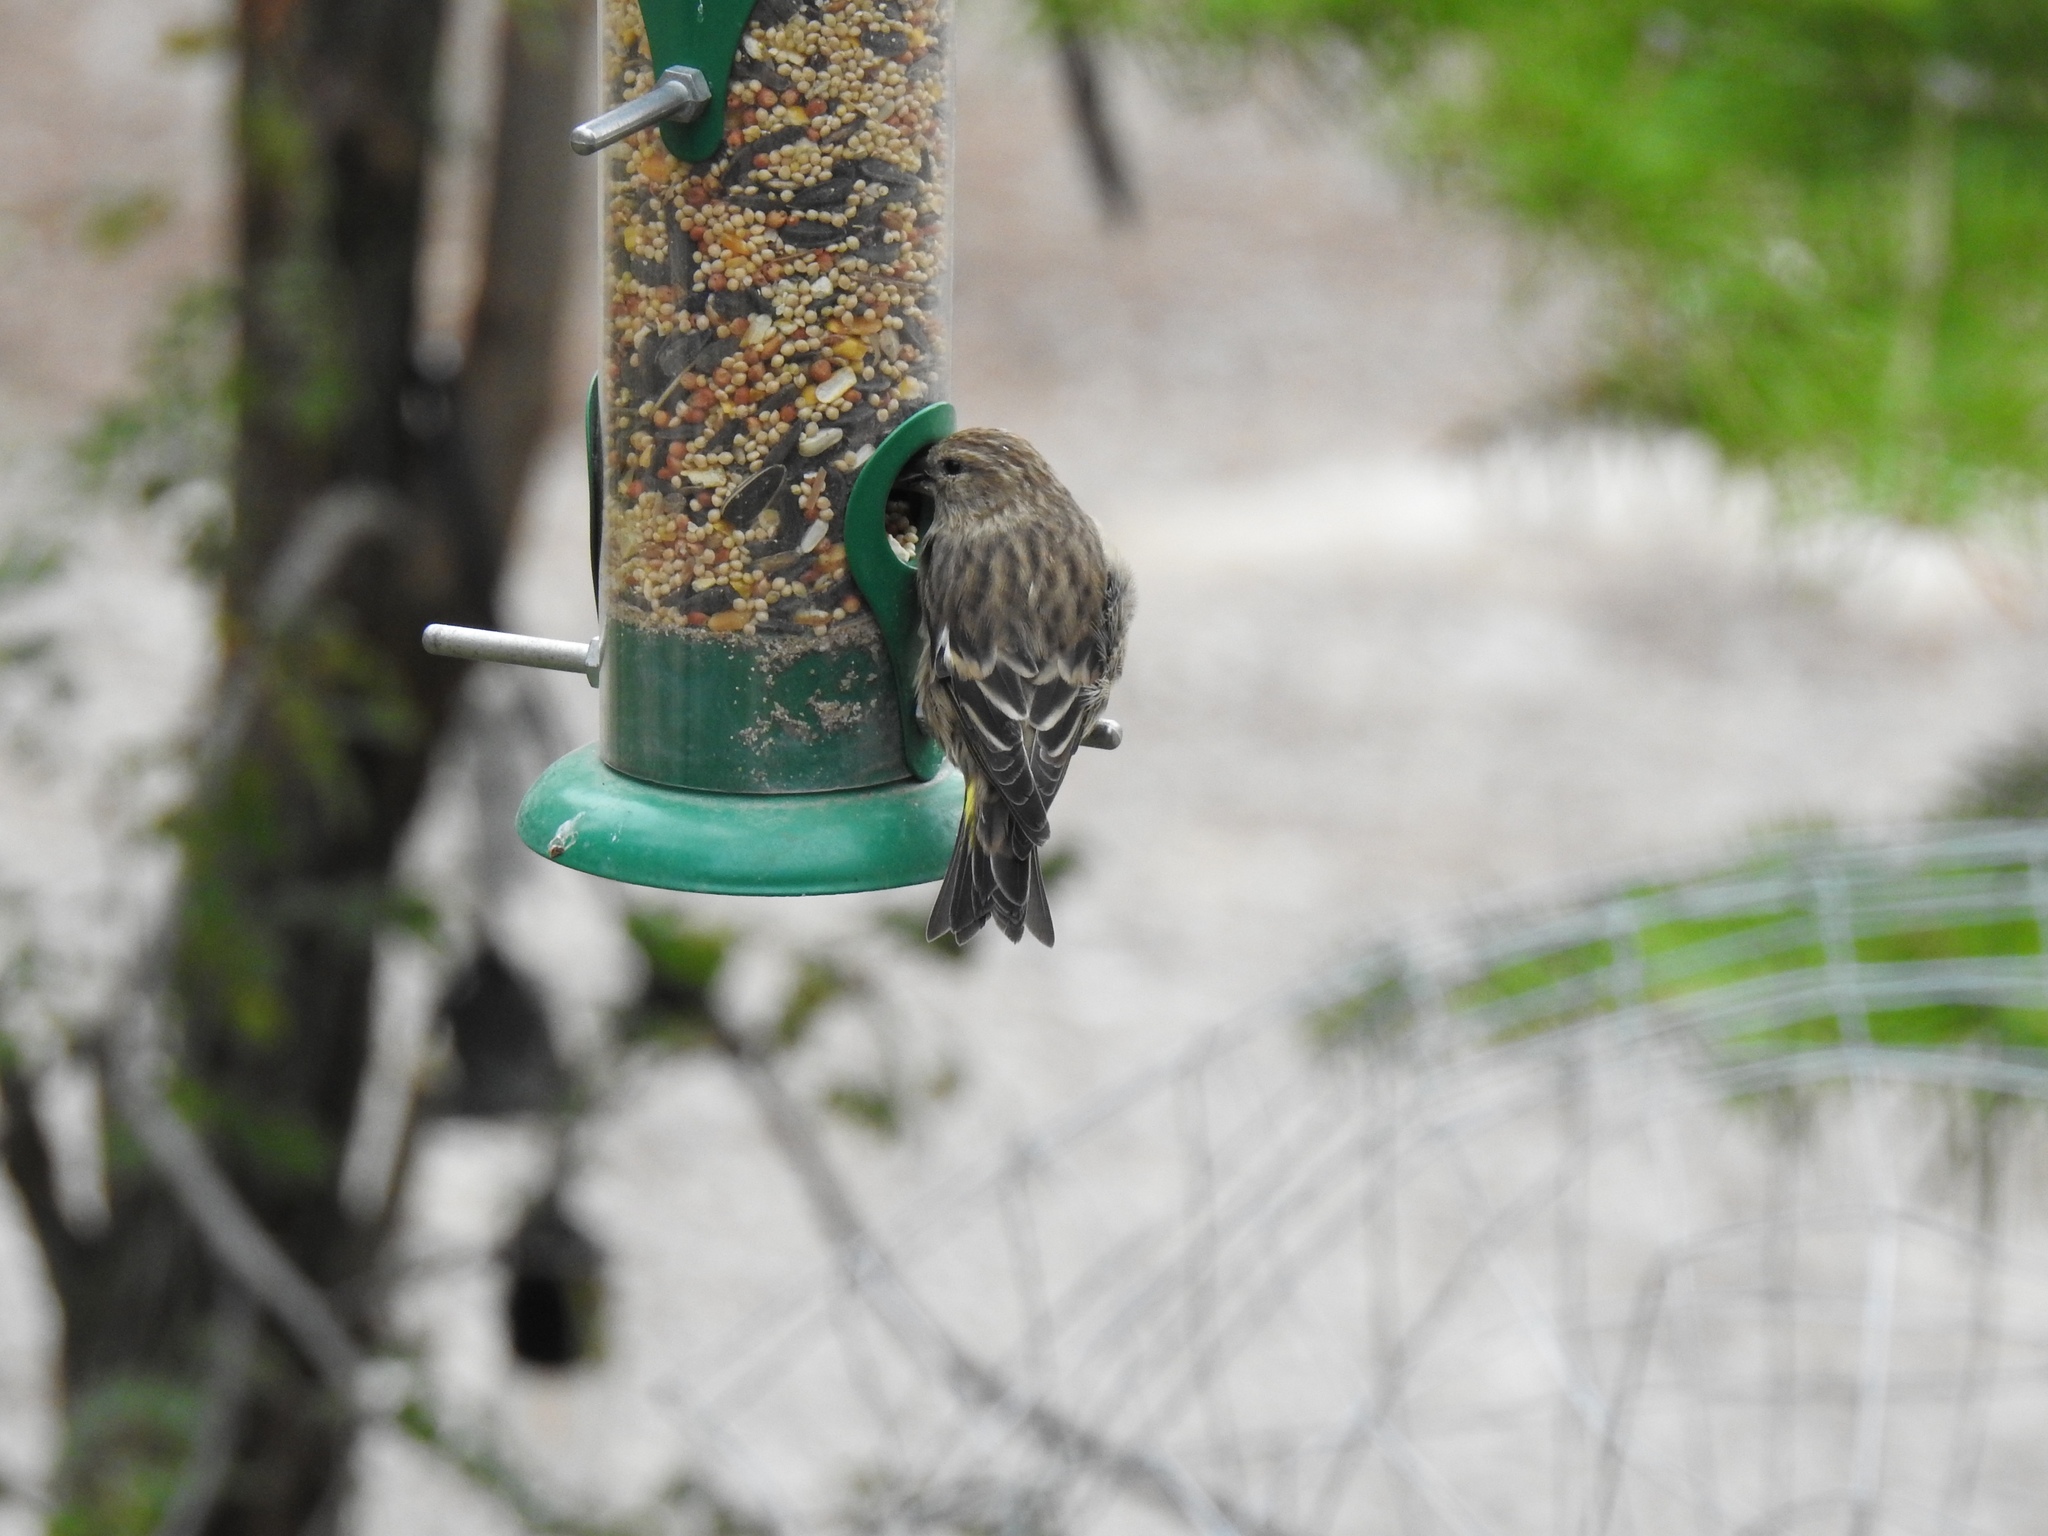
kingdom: Animalia
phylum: Chordata
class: Aves
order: Passeriformes
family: Fringillidae
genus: Spinus
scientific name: Spinus pinus
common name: Pine siskin
